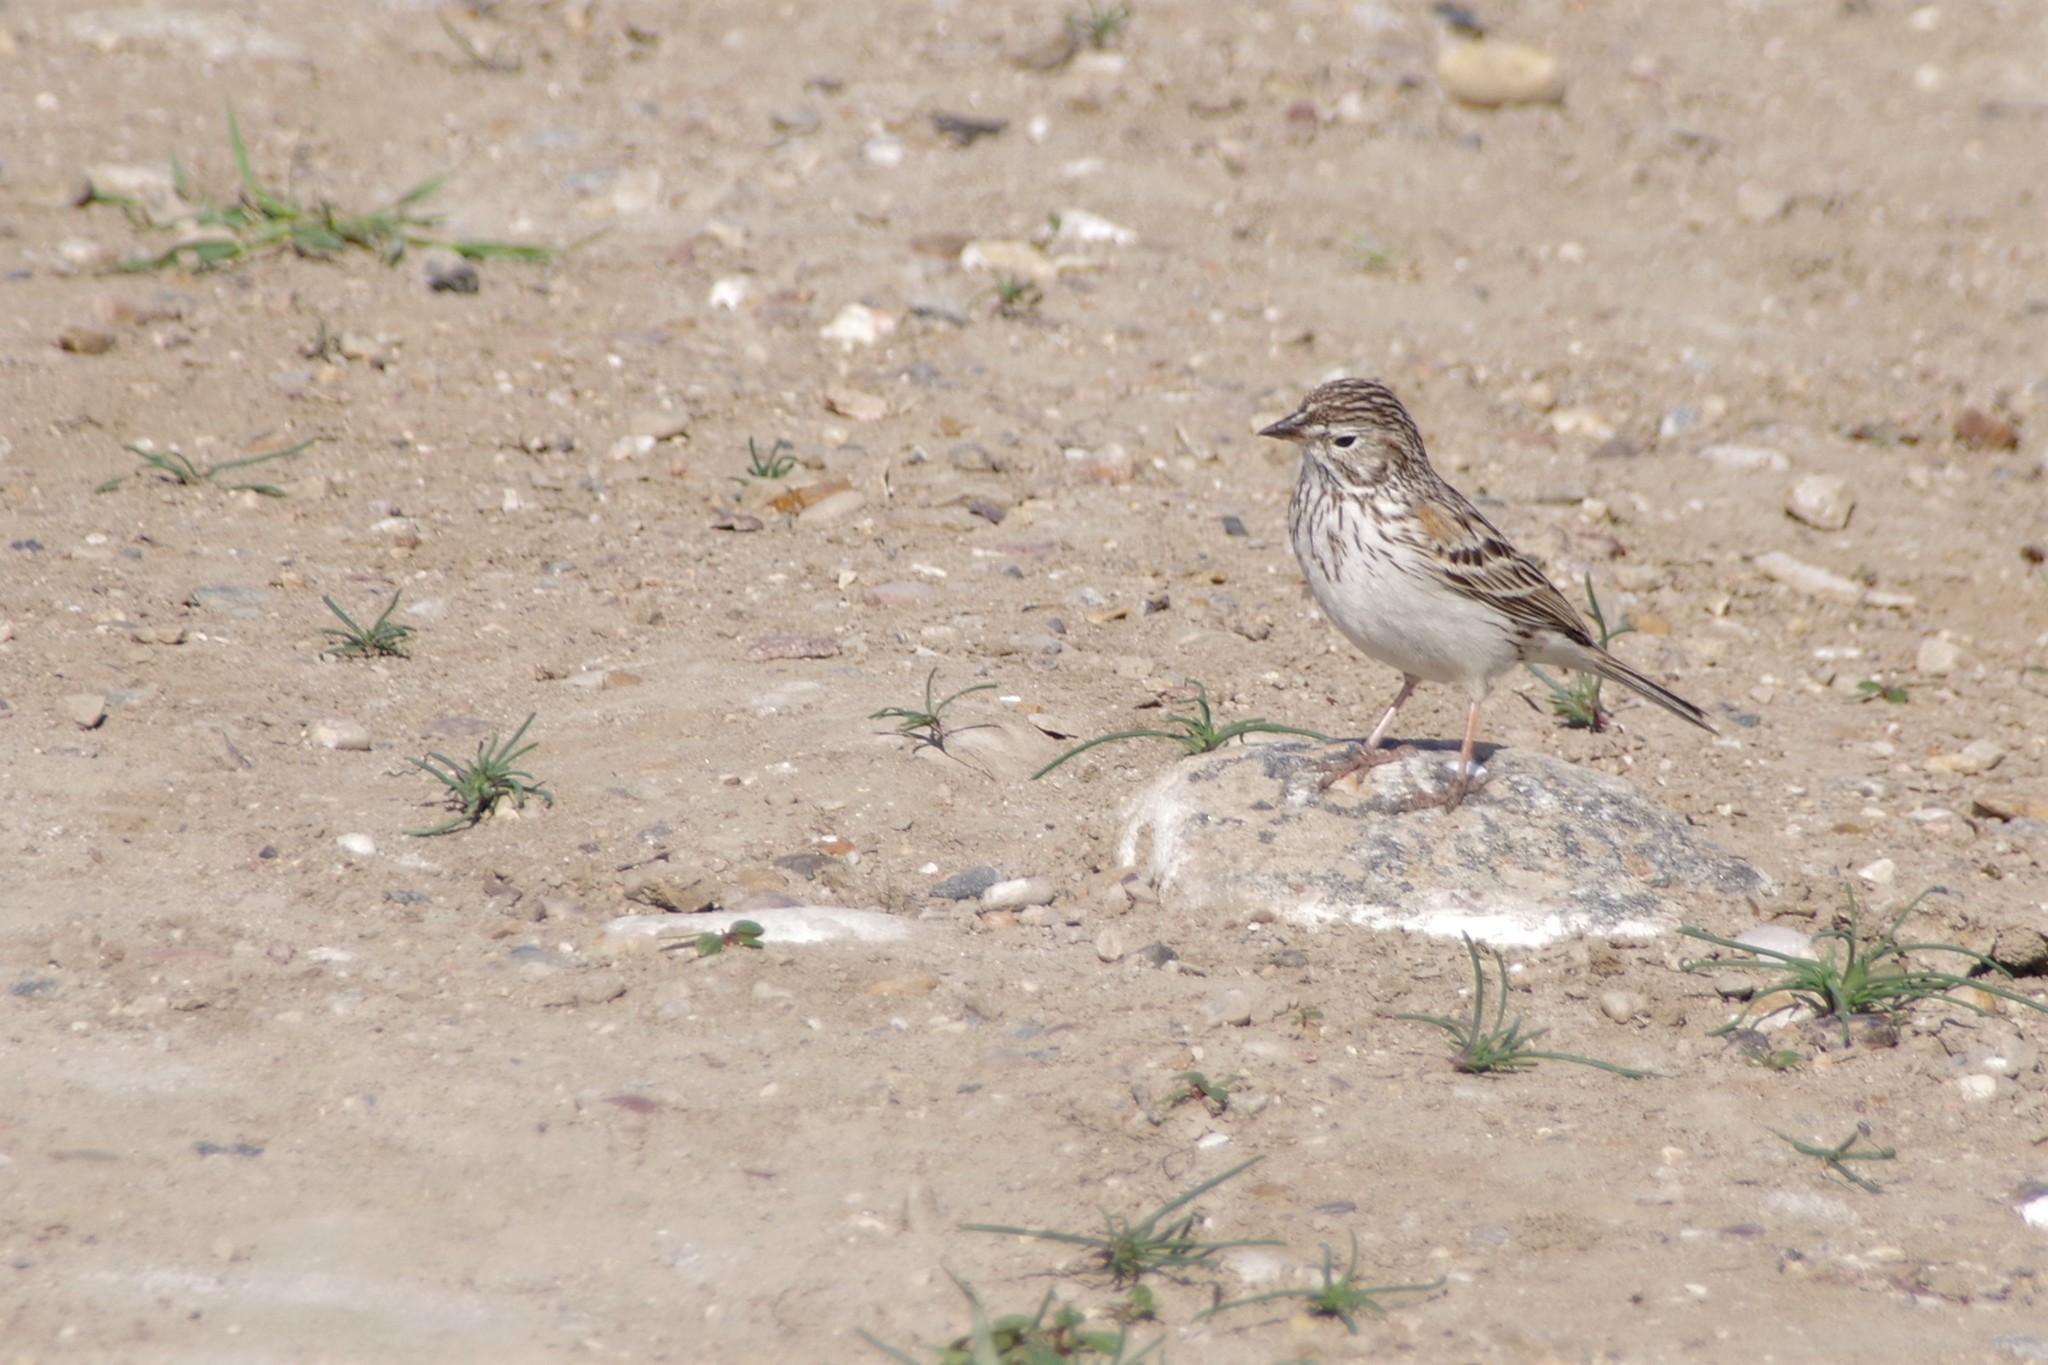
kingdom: Animalia
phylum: Chordata
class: Aves
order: Passeriformes
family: Passerellidae
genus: Pooecetes
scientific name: Pooecetes gramineus
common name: Vesper sparrow
